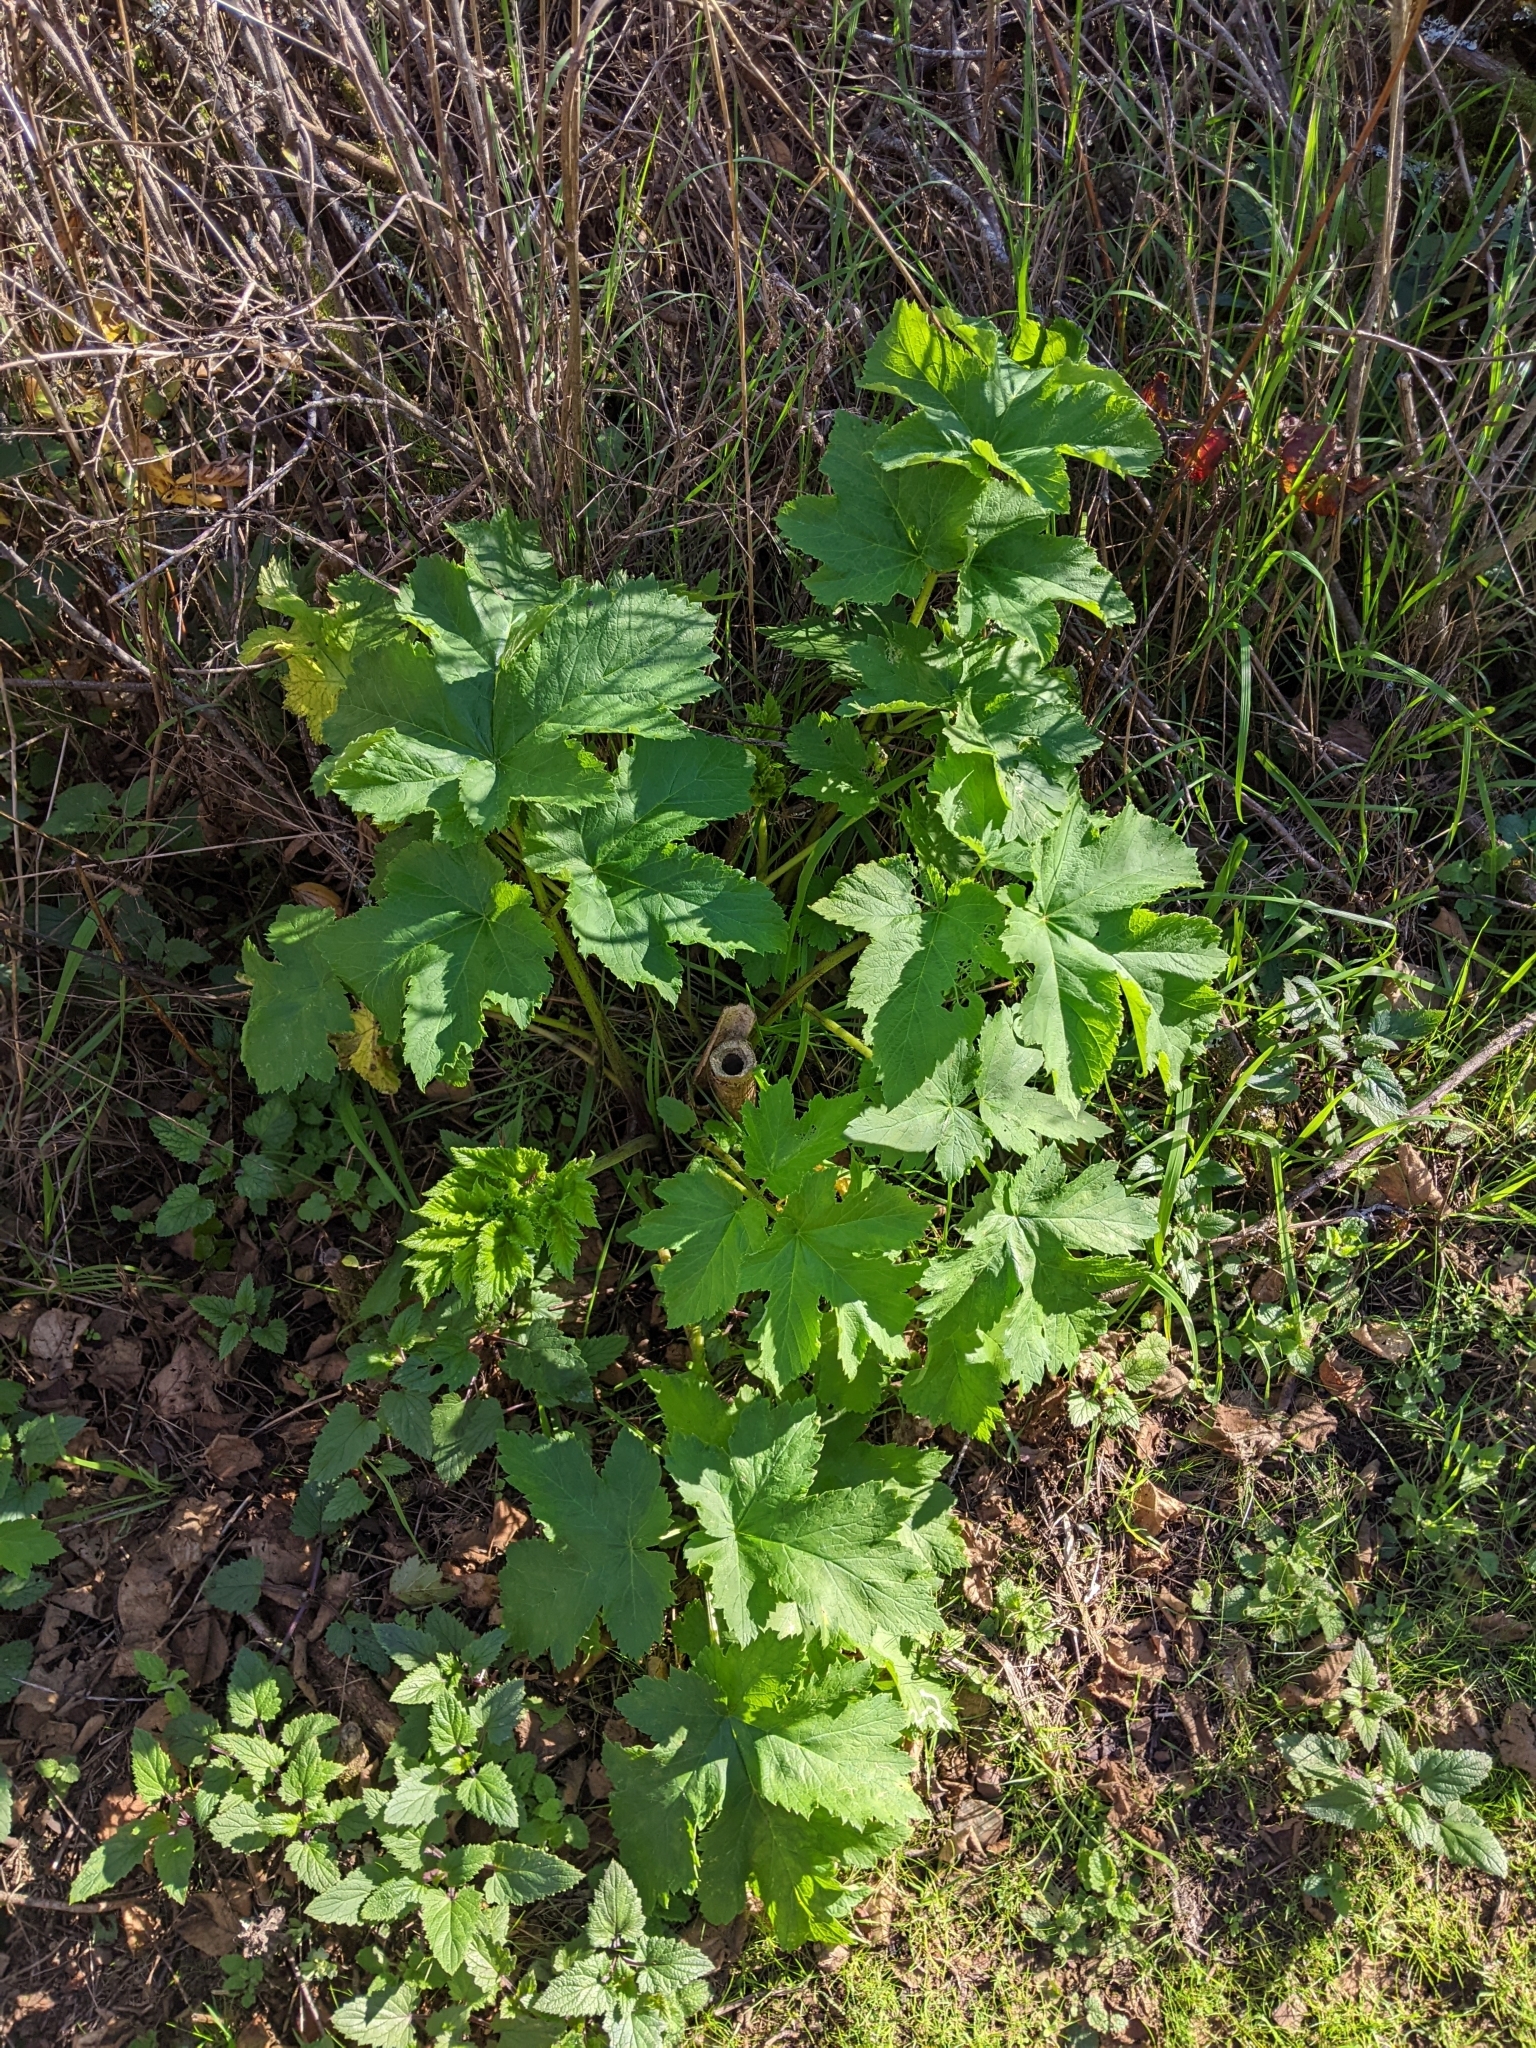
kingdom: Plantae
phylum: Tracheophyta
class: Magnoliopsida
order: Apiales
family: Apiaceae
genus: Heracleum
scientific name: Heracleum maximum
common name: American cow parsnip
